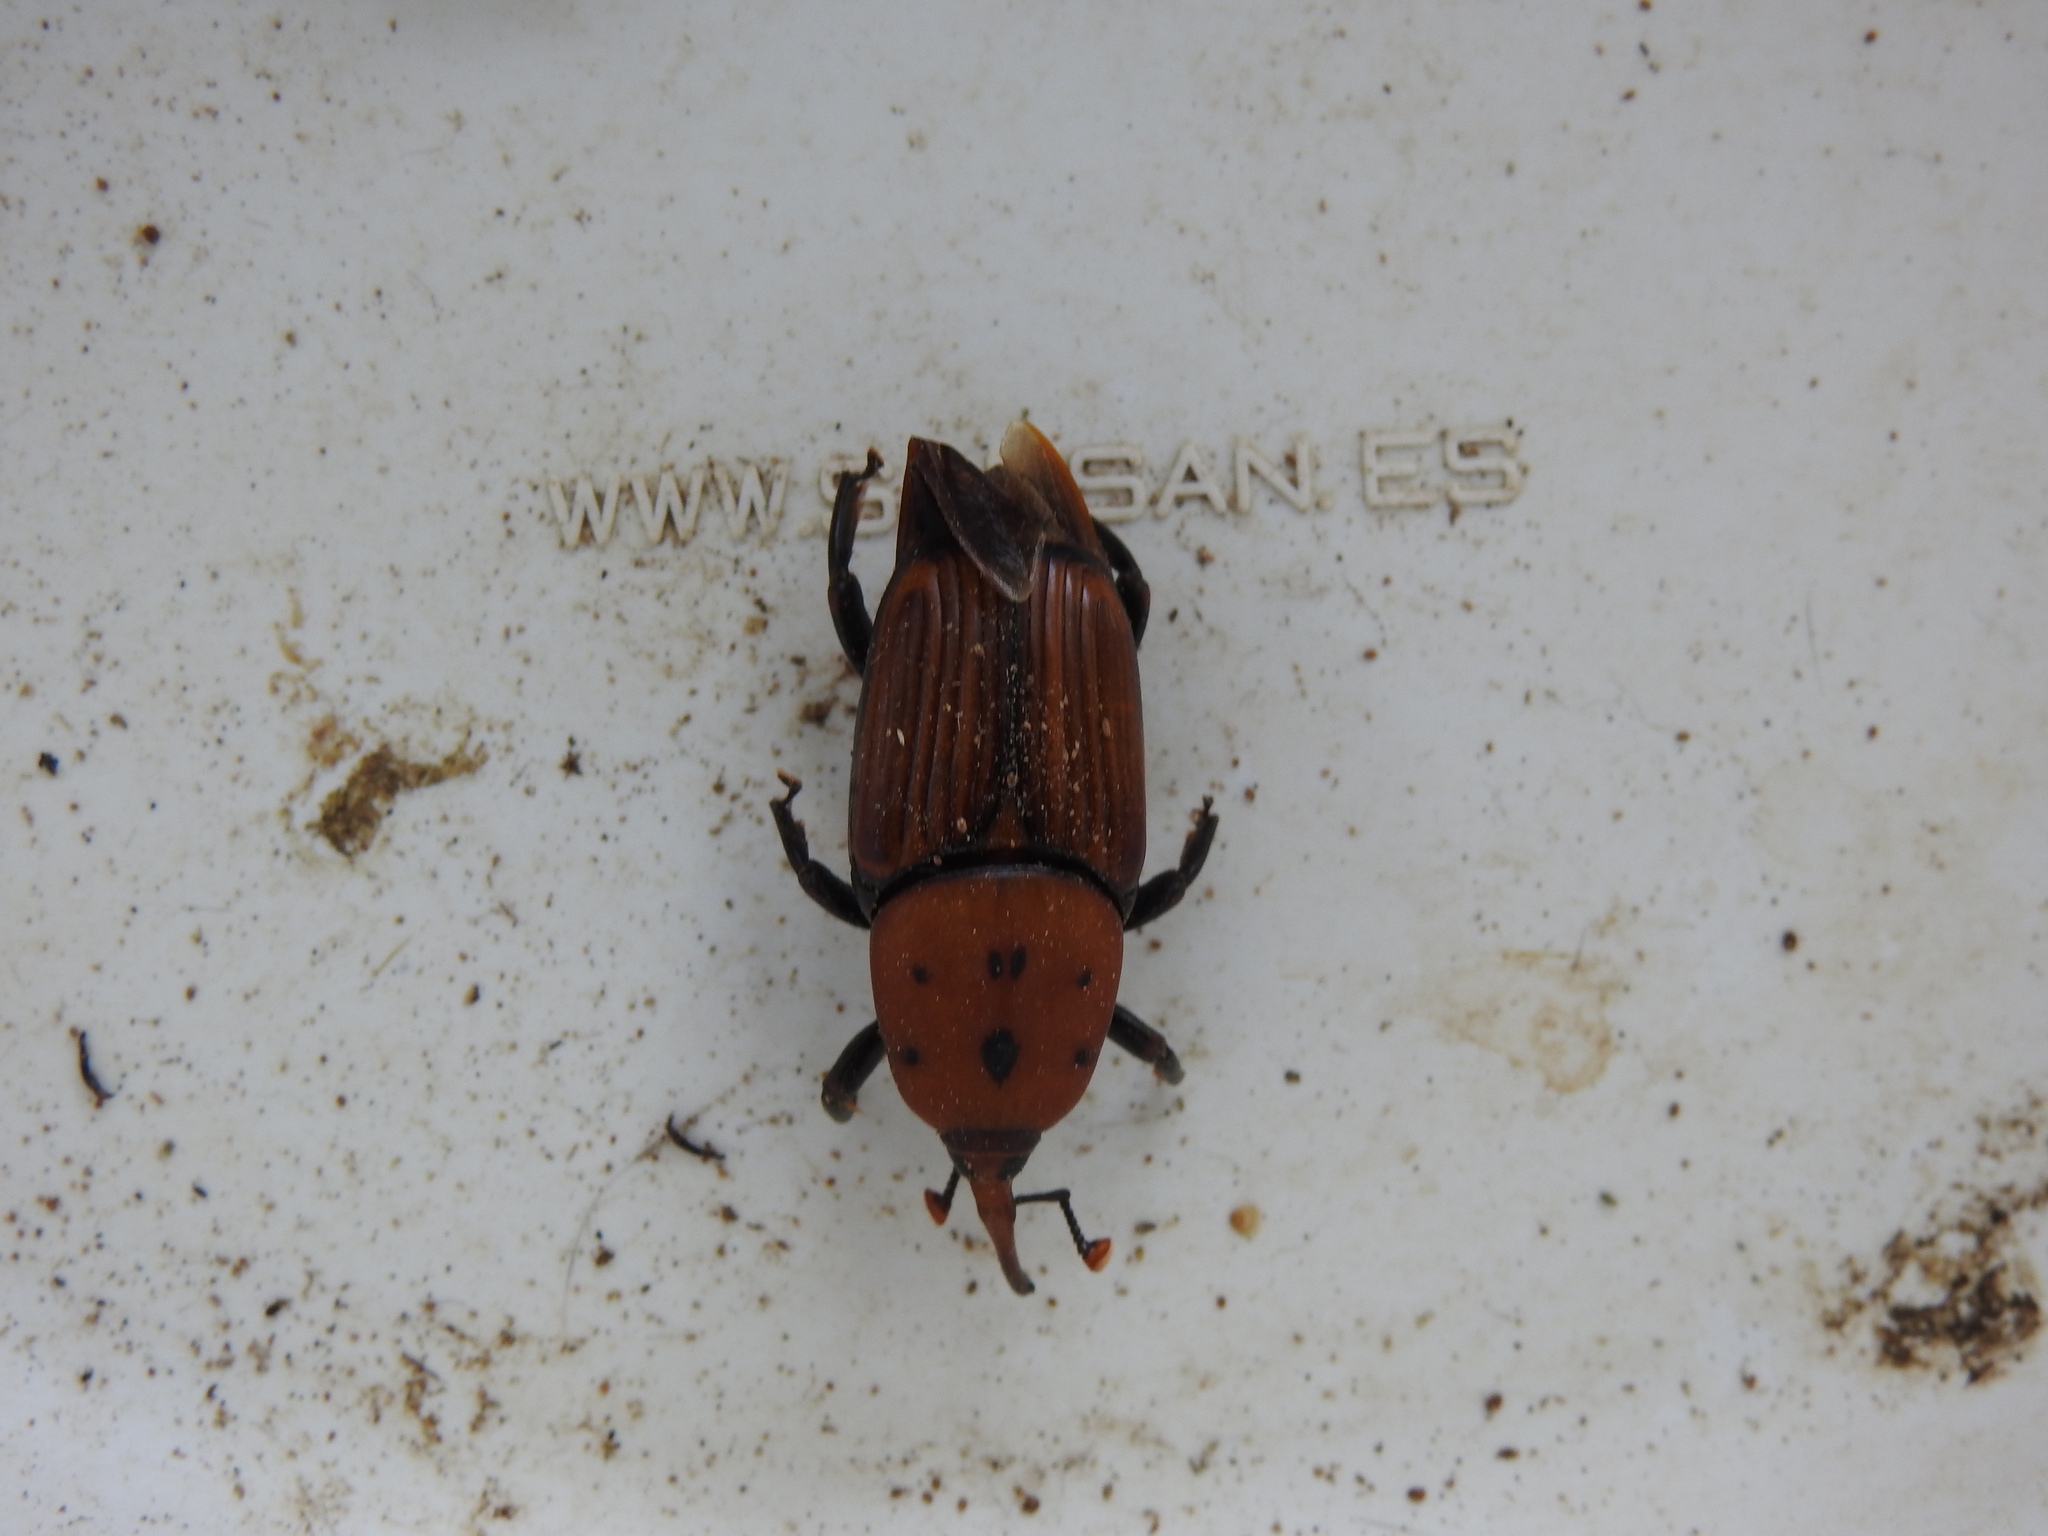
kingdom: Animalia
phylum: Arthropoda
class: Insecta
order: Coleoptera
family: Dryophthoridae
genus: Rhynchophorus
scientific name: Rhynchophorus ferrugineus
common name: Red palm weevil
